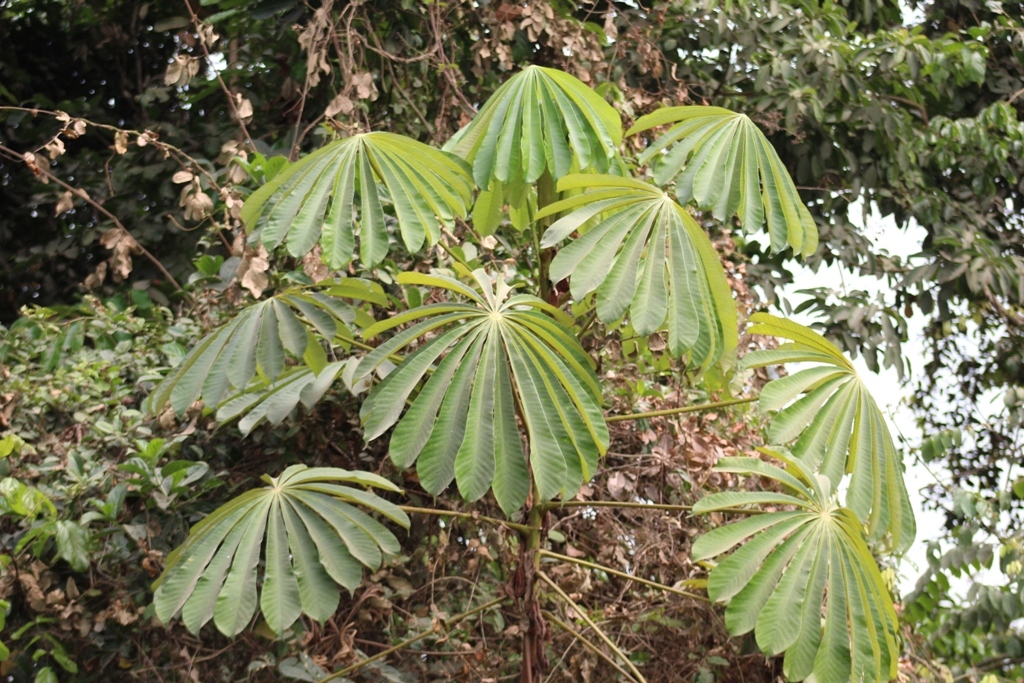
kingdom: Plantae
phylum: Tracheophyta
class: Magnoliopsida
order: Rosales
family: Urticaceae
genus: Musanga
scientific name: Musanga cecropioides
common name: African corkwood
